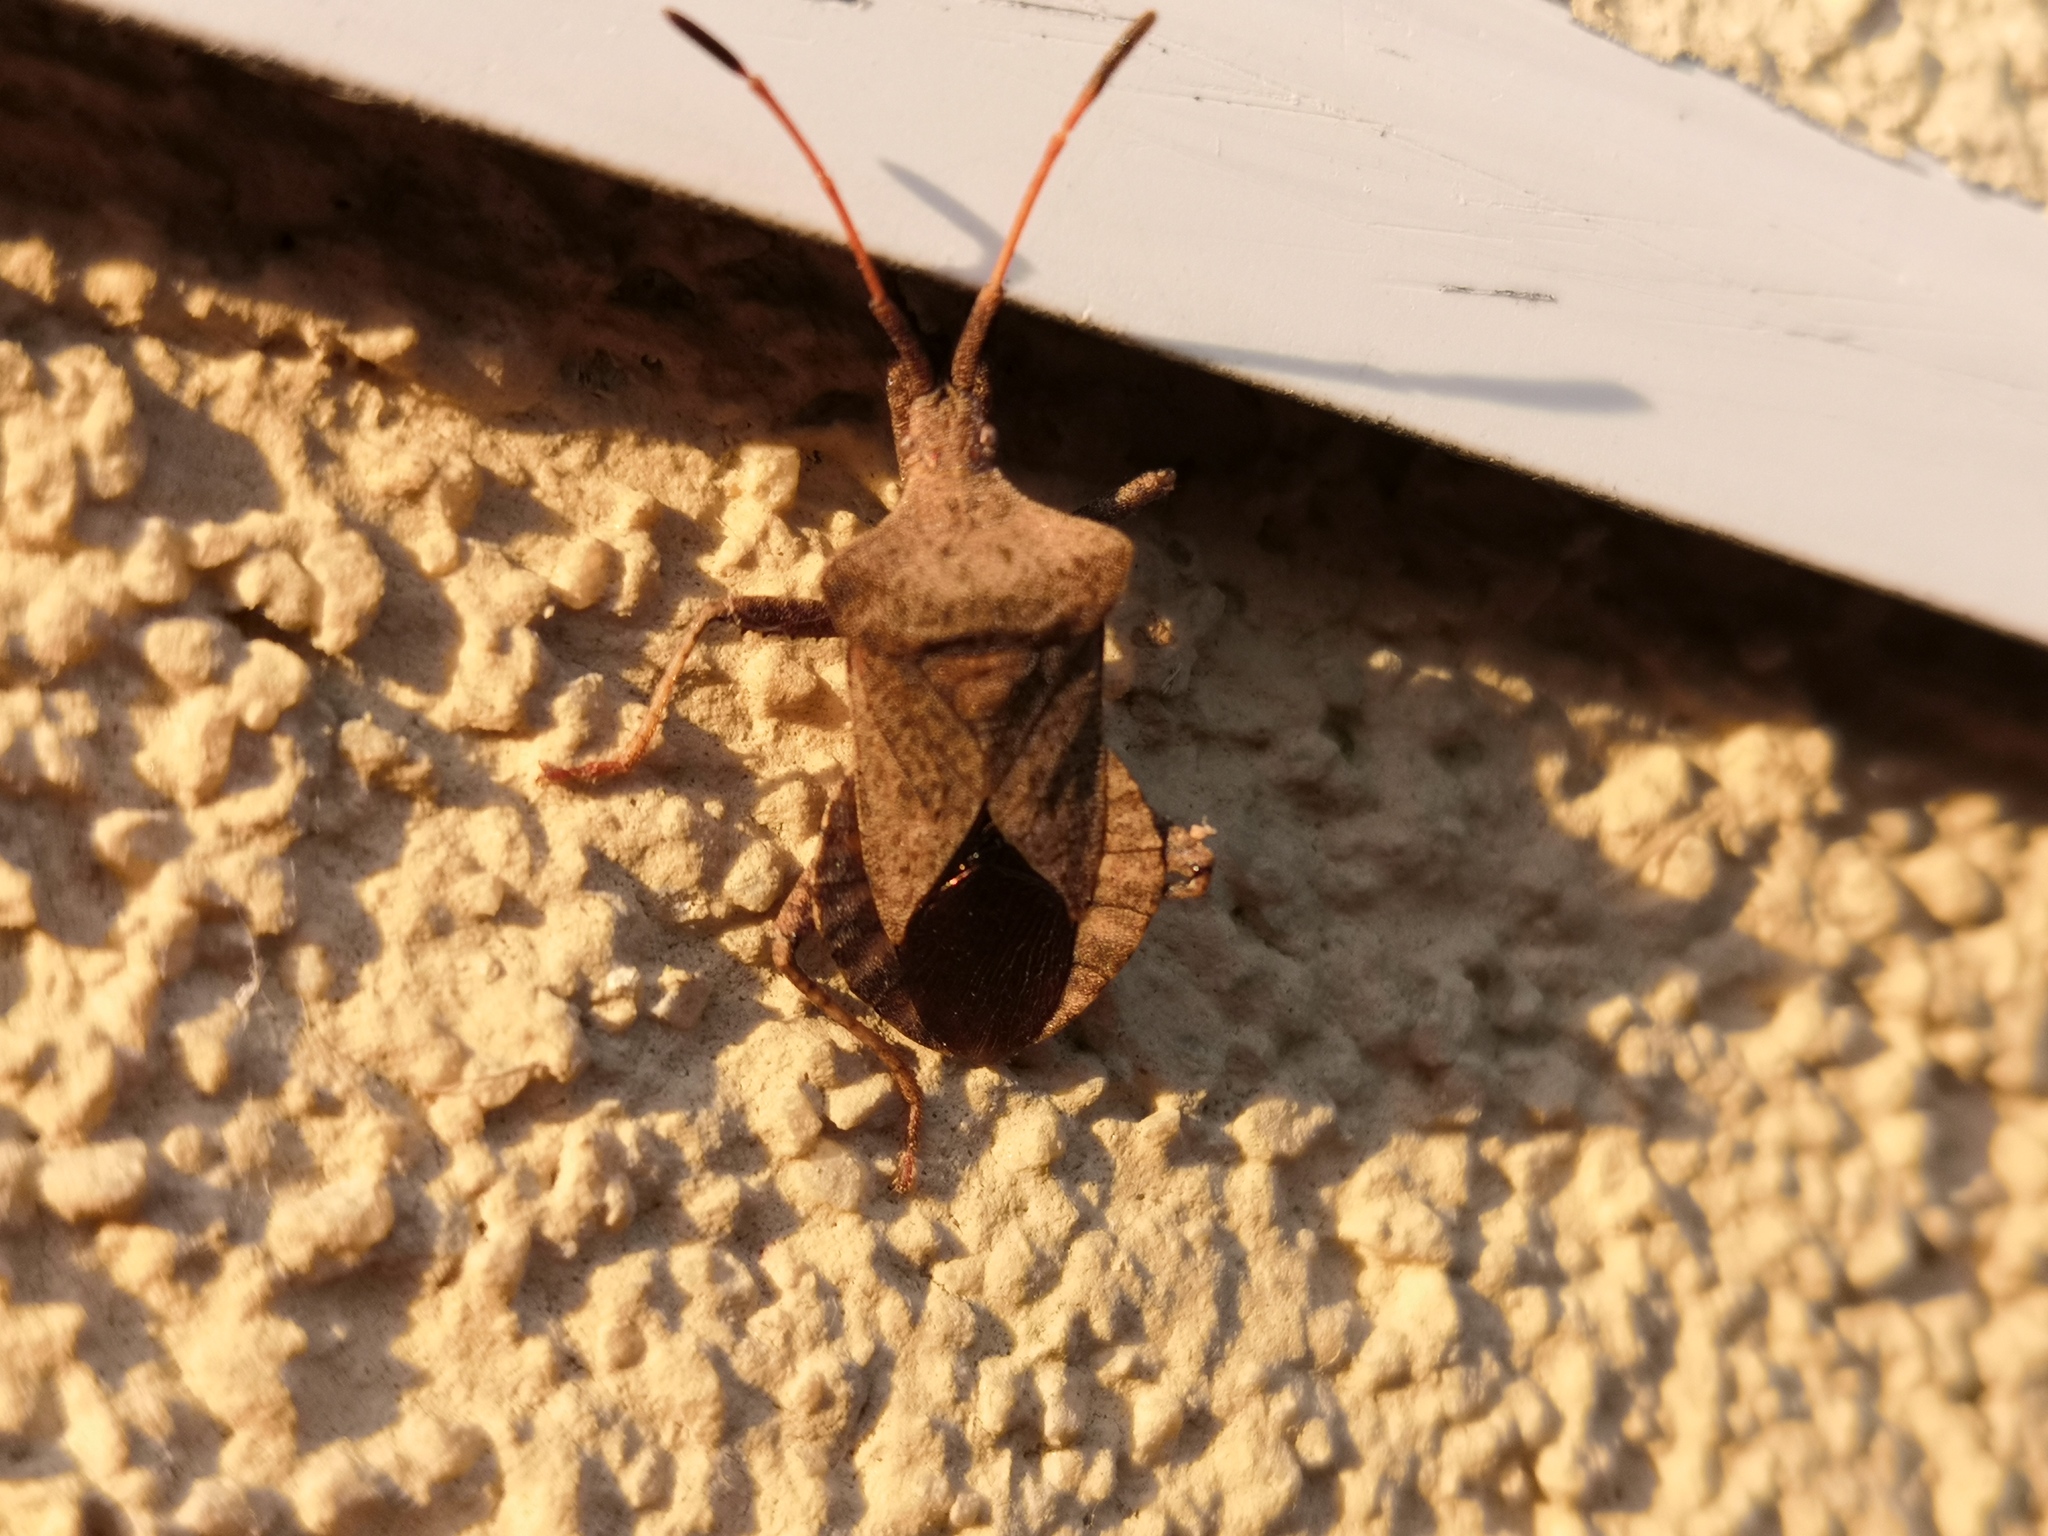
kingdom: Animalia
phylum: Arthropoda
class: Insecta
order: Hemiptera
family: Coreidae
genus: Coreus
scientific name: Coreus marginatus
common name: Dock bug
